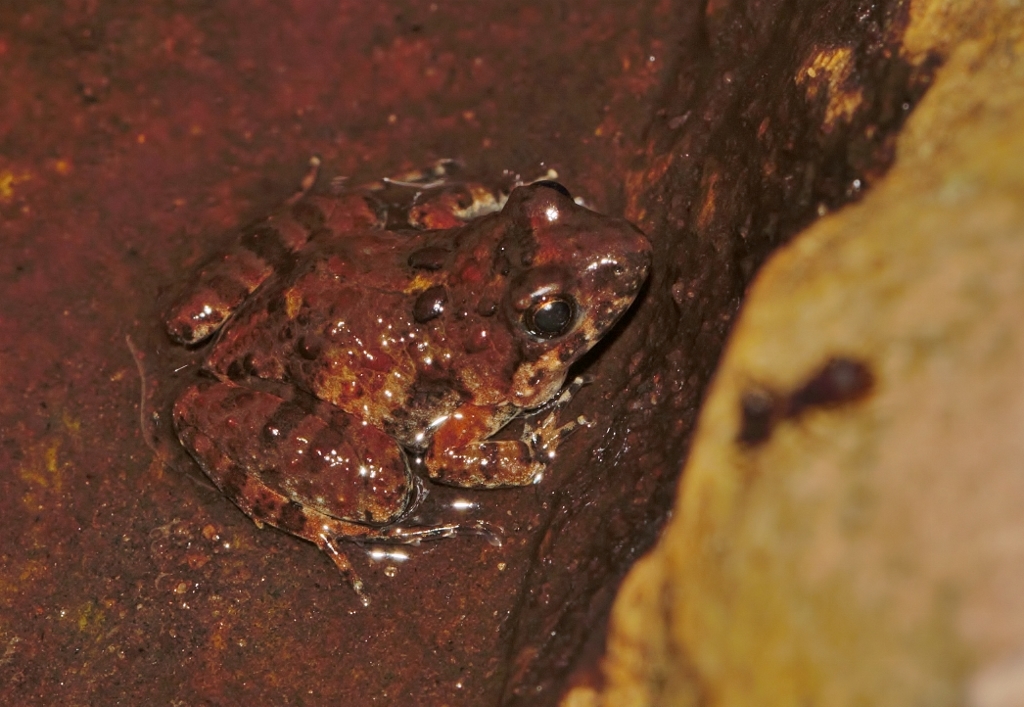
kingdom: Animalia
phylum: Chordata
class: Amphibia
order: Anura
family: Phrynobatrachidae
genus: Phrynobatrachus
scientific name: Phrynobatrachus mababiensis
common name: Dwarf puddle frog
